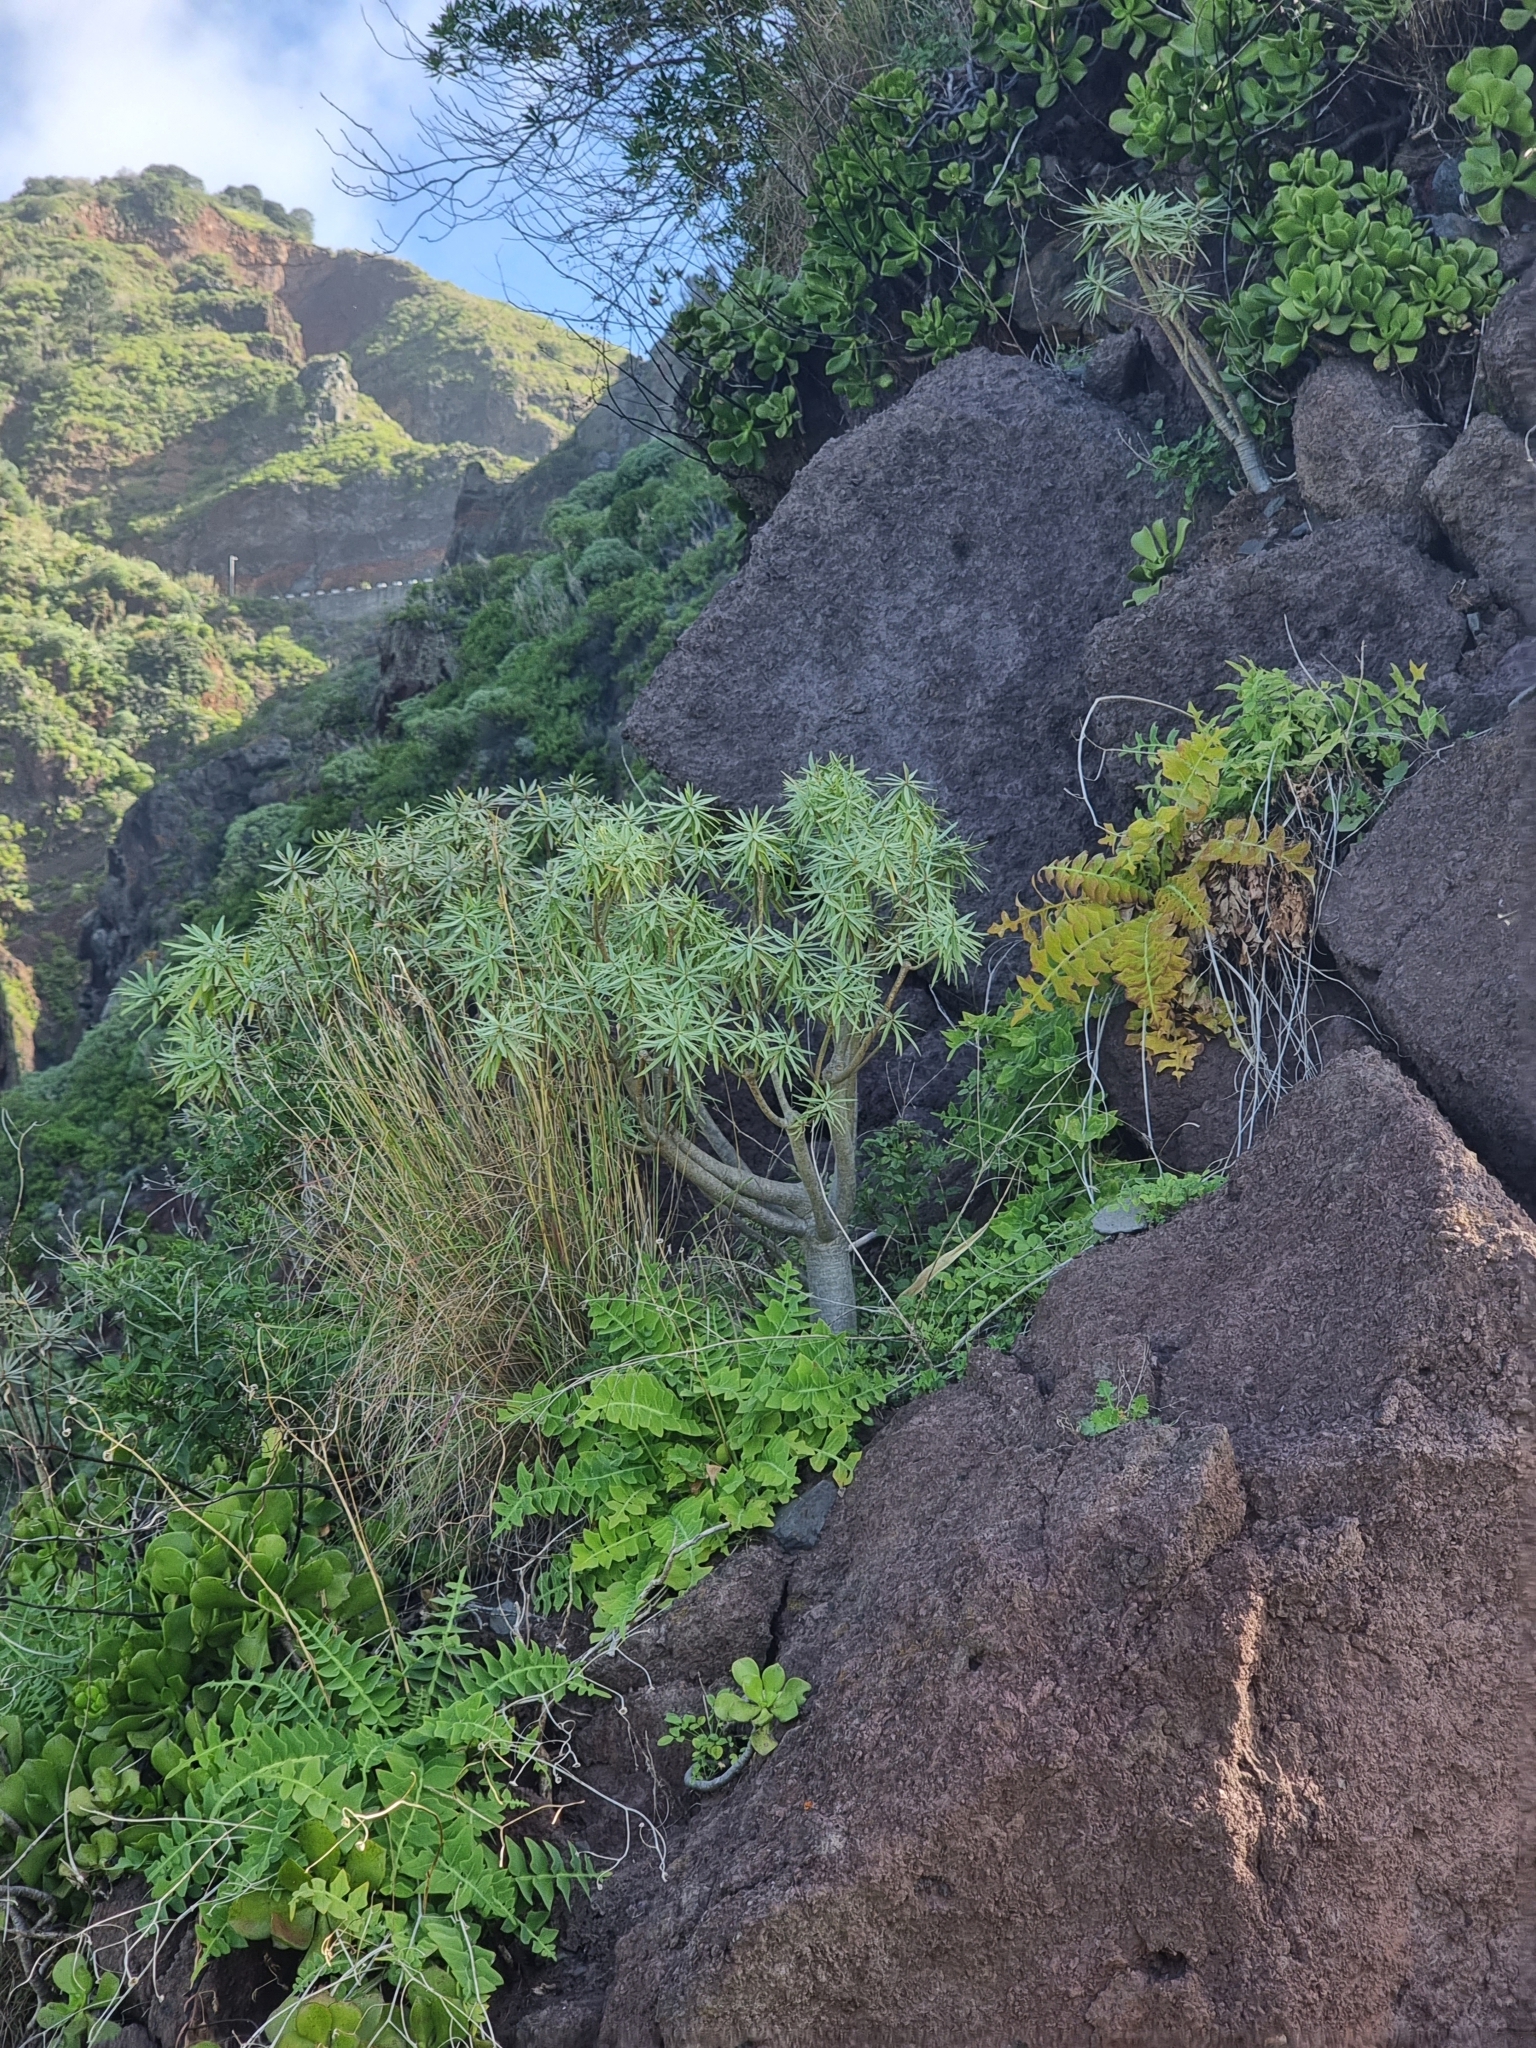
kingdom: Plantae
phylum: Tracheophyta
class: Magnoliopsida
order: Malpighiales
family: Euphorbiaceae
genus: Euphorbia
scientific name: Euphorbia piscatoria
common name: Fish-stunning spurge
